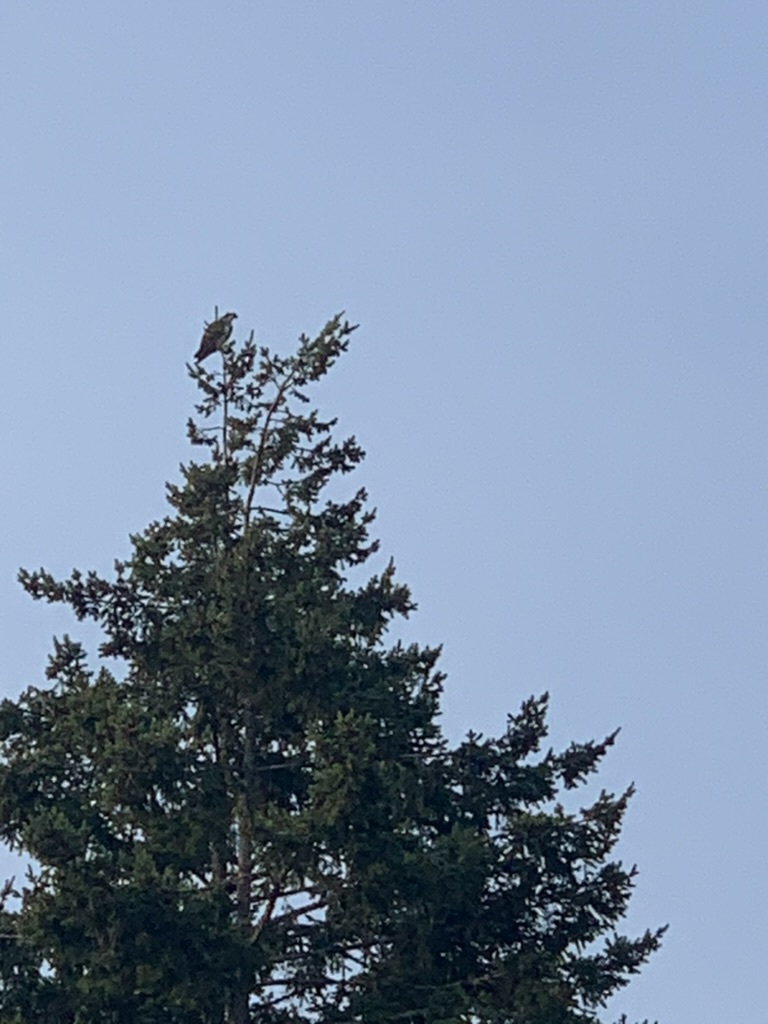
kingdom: Animalia
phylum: Chordata
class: Aves
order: Accipitriformes
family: Pandionidae
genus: Pandion
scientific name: Pandion haliaetus
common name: Osprey
